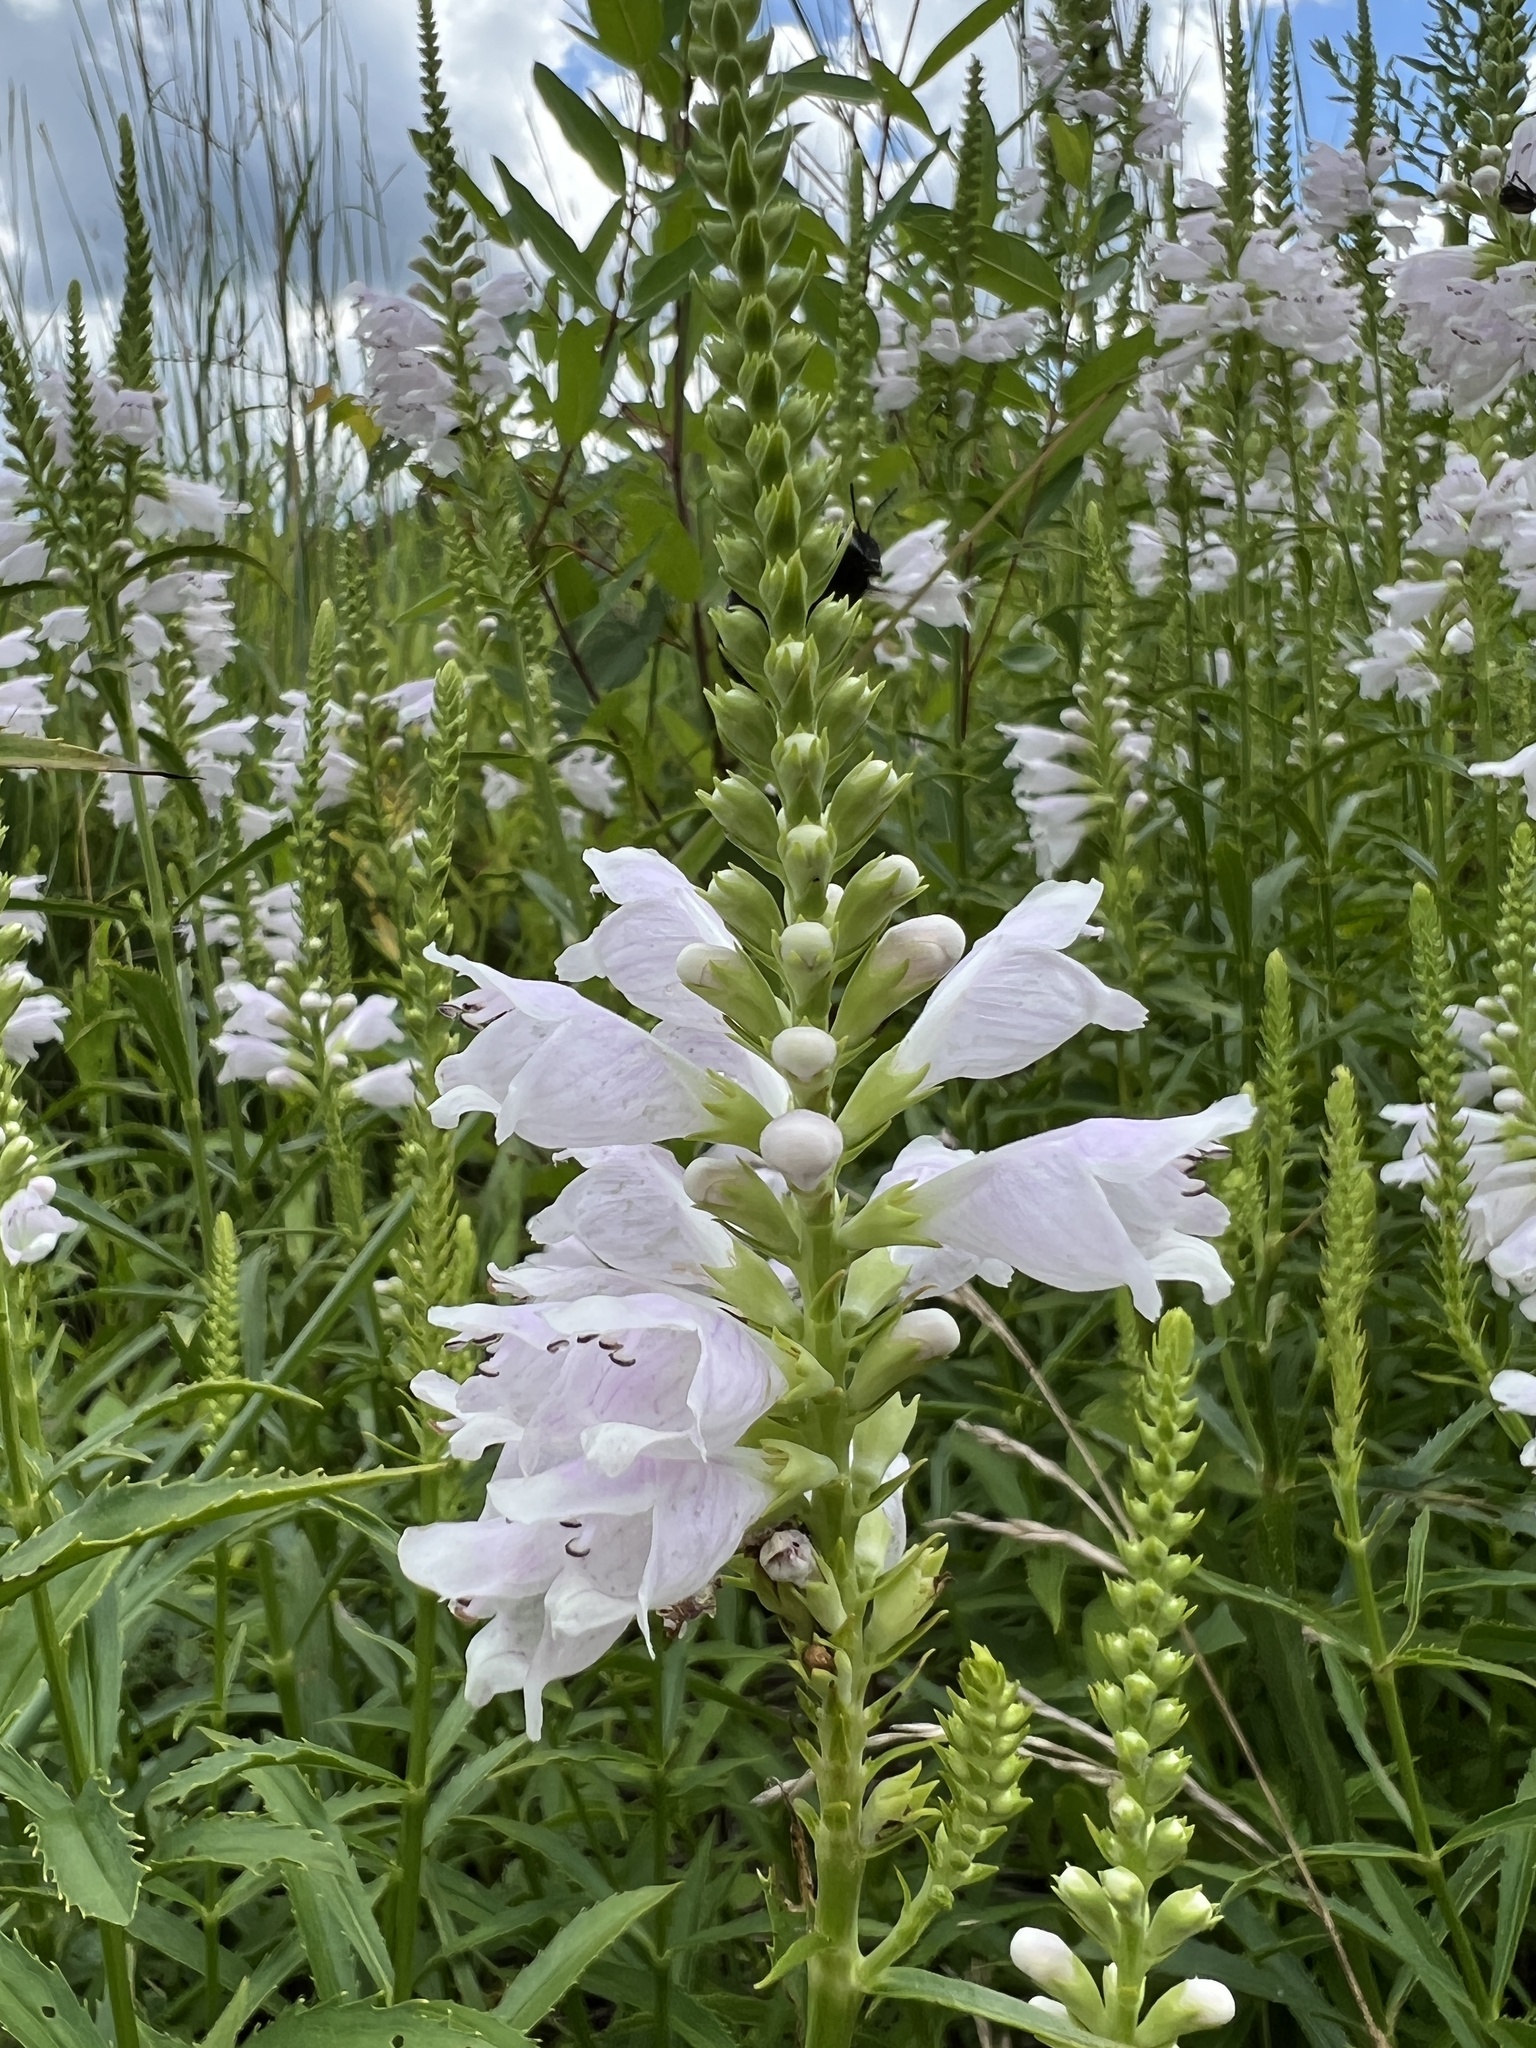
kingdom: Plantae
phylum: Tracheophyta
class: Magnoliopsida
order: Lamiales
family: Lamiaceae
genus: Physostegia
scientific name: Physostegia virginiana
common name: Obedient-plant
